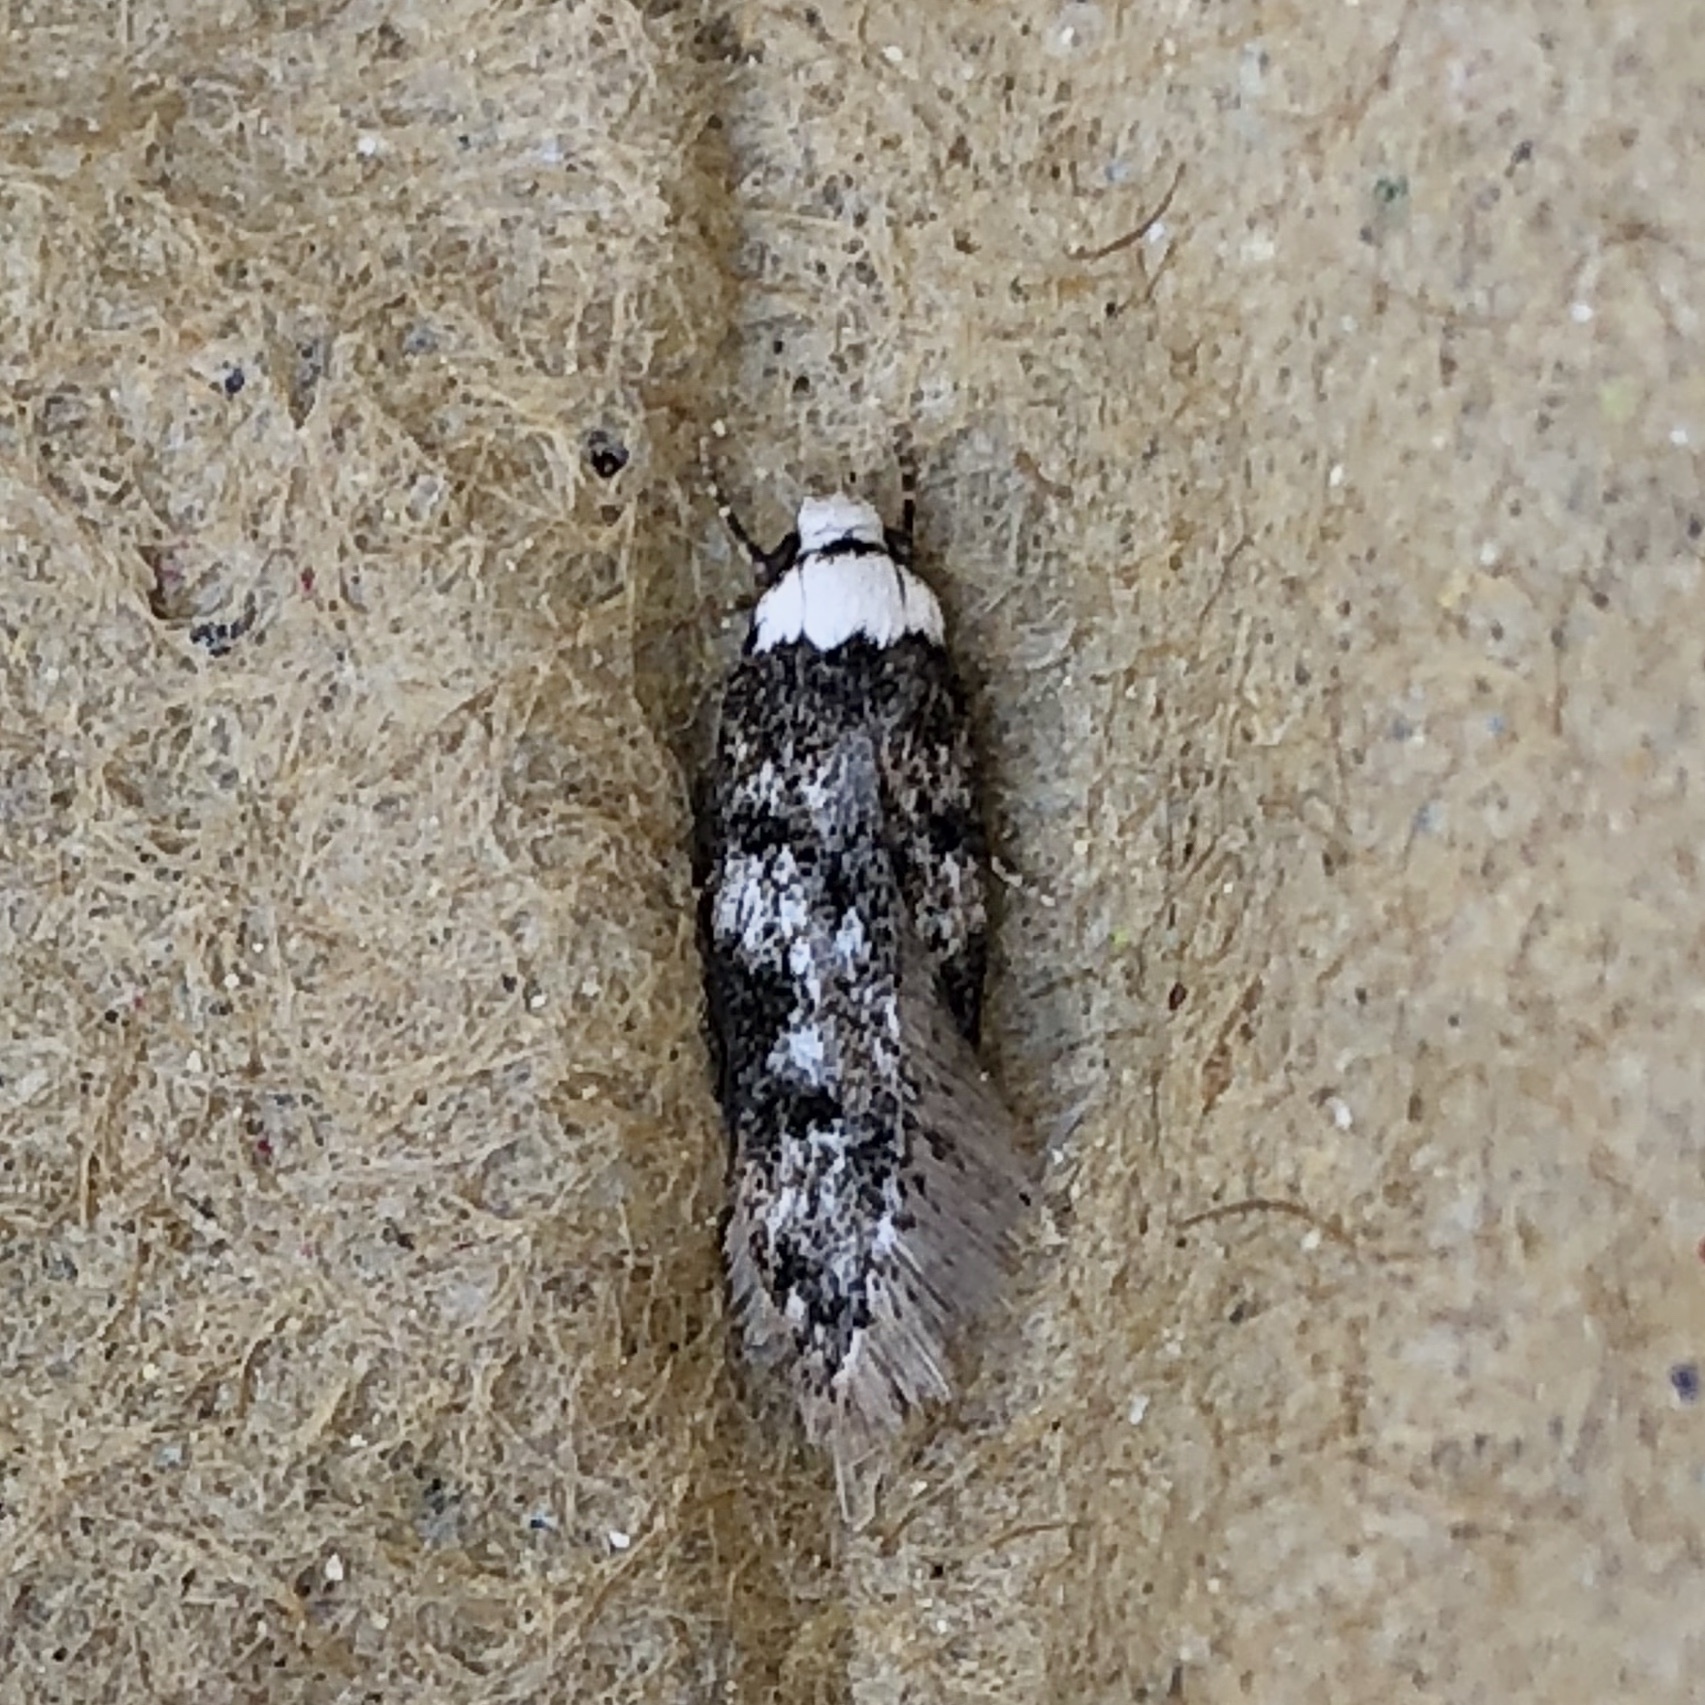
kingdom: Animalia
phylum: Arthropoda
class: Insecta
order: Lepidoptera
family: Oecophoridae
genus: Endrosis
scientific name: Endrosis sarcitrella
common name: White-shouldered house moth
